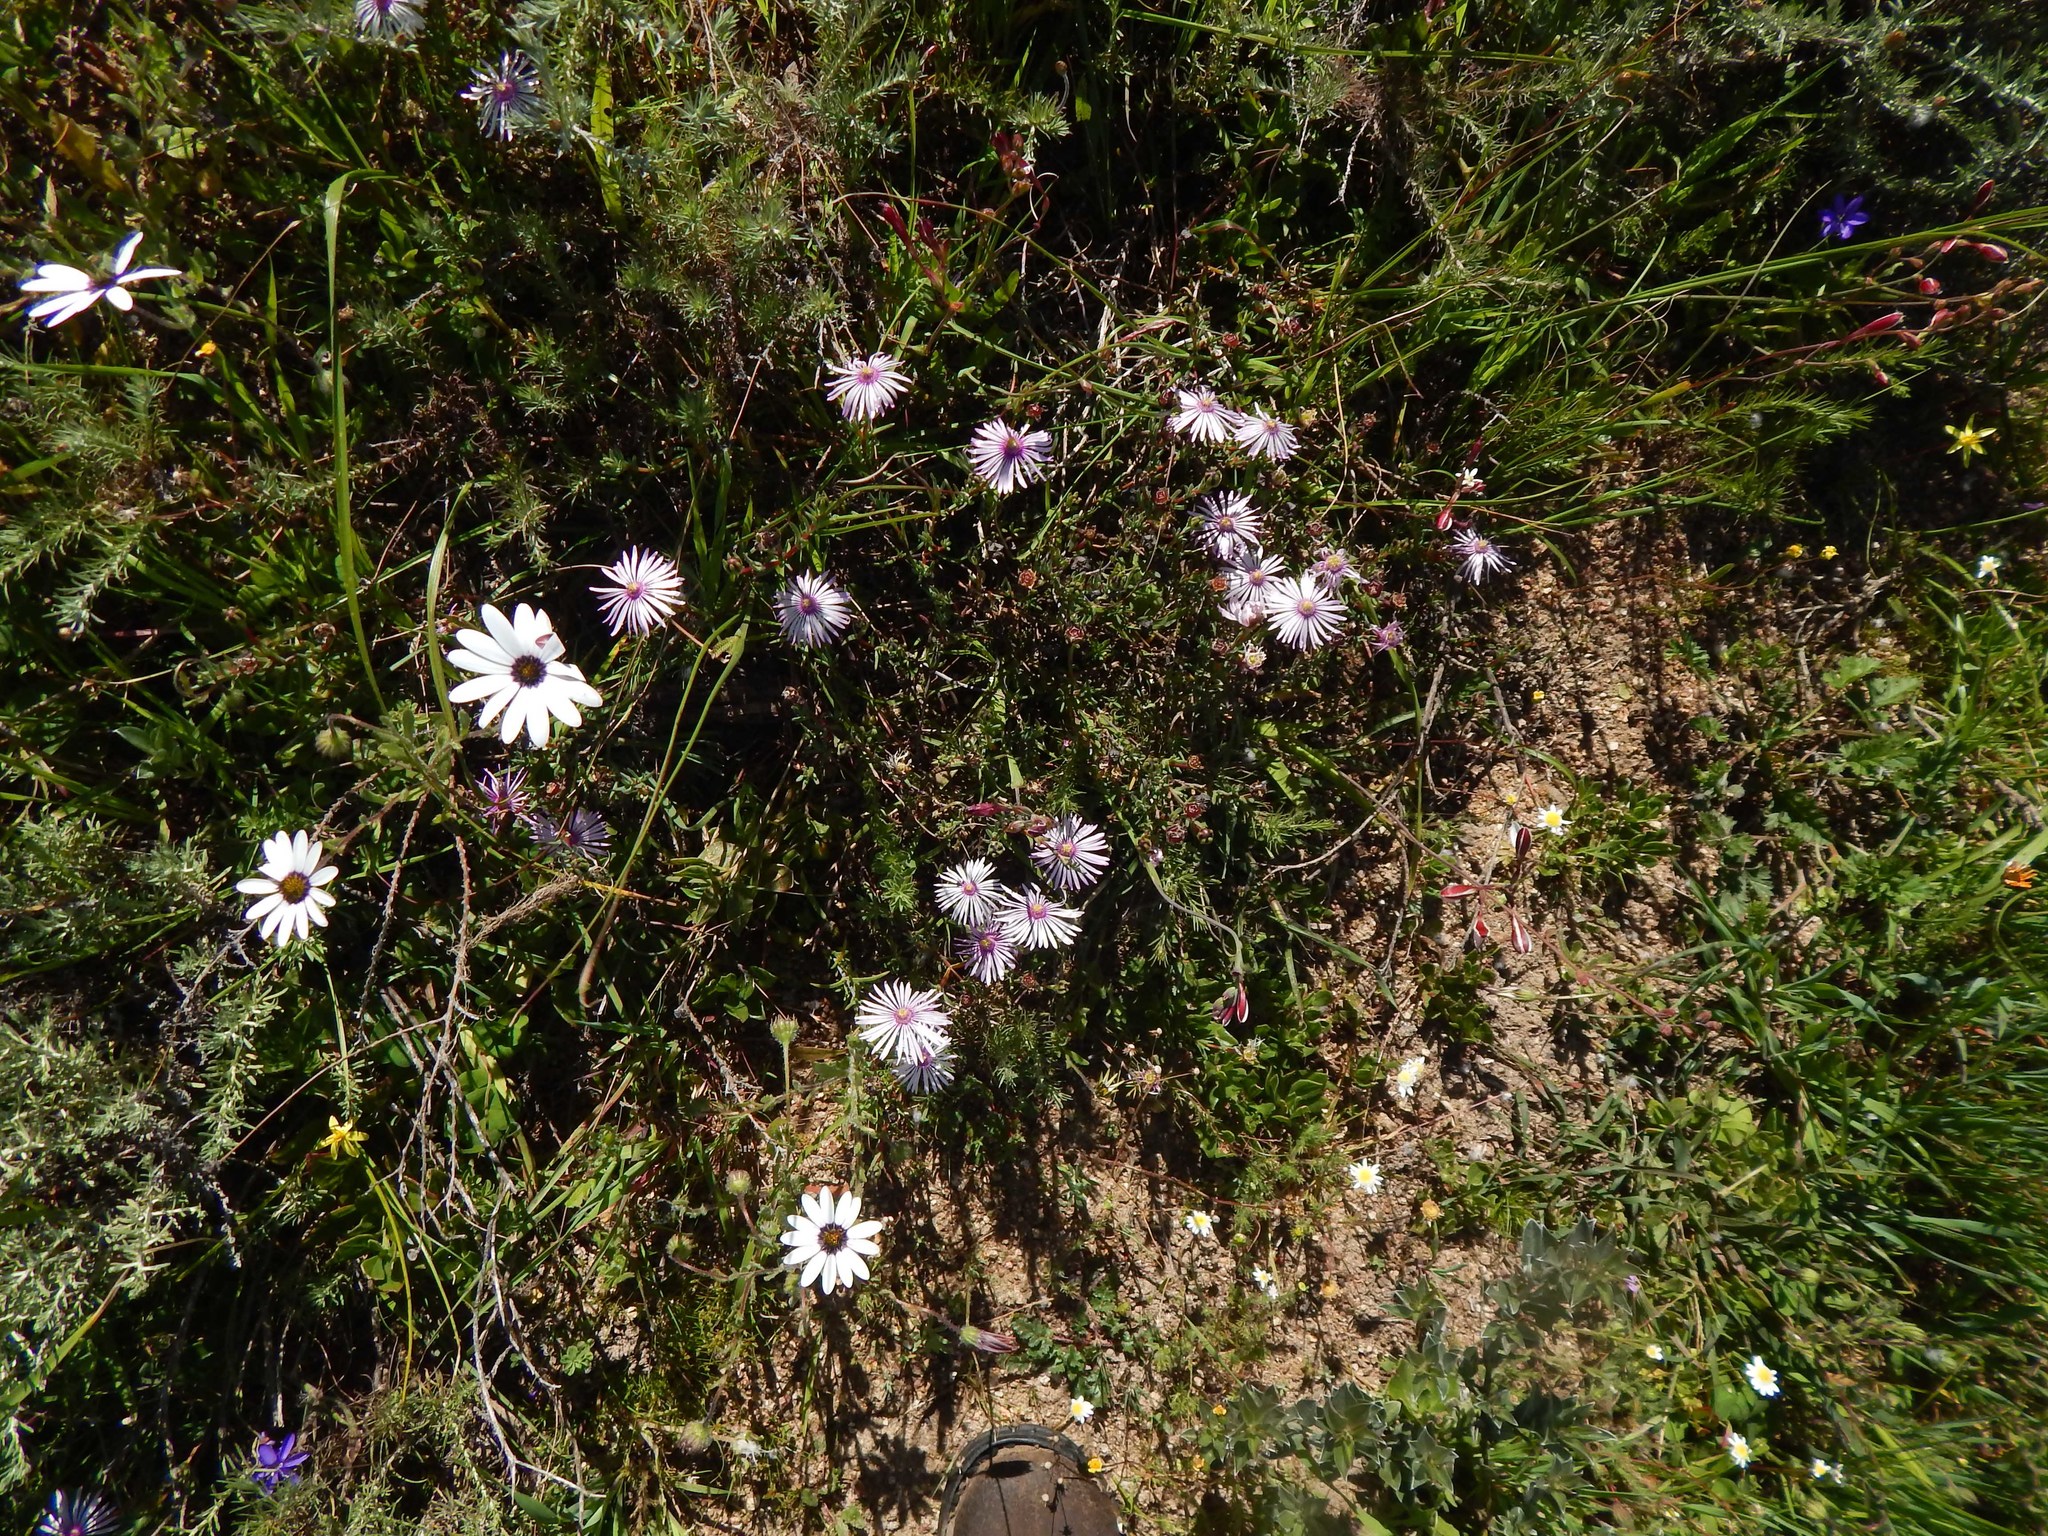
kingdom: Plantae
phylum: Tracheophyta
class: Magnoliopsida
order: Caryophyllales
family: Aizoaceae
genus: Lampranthus
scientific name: Lampranthus leptaleon
